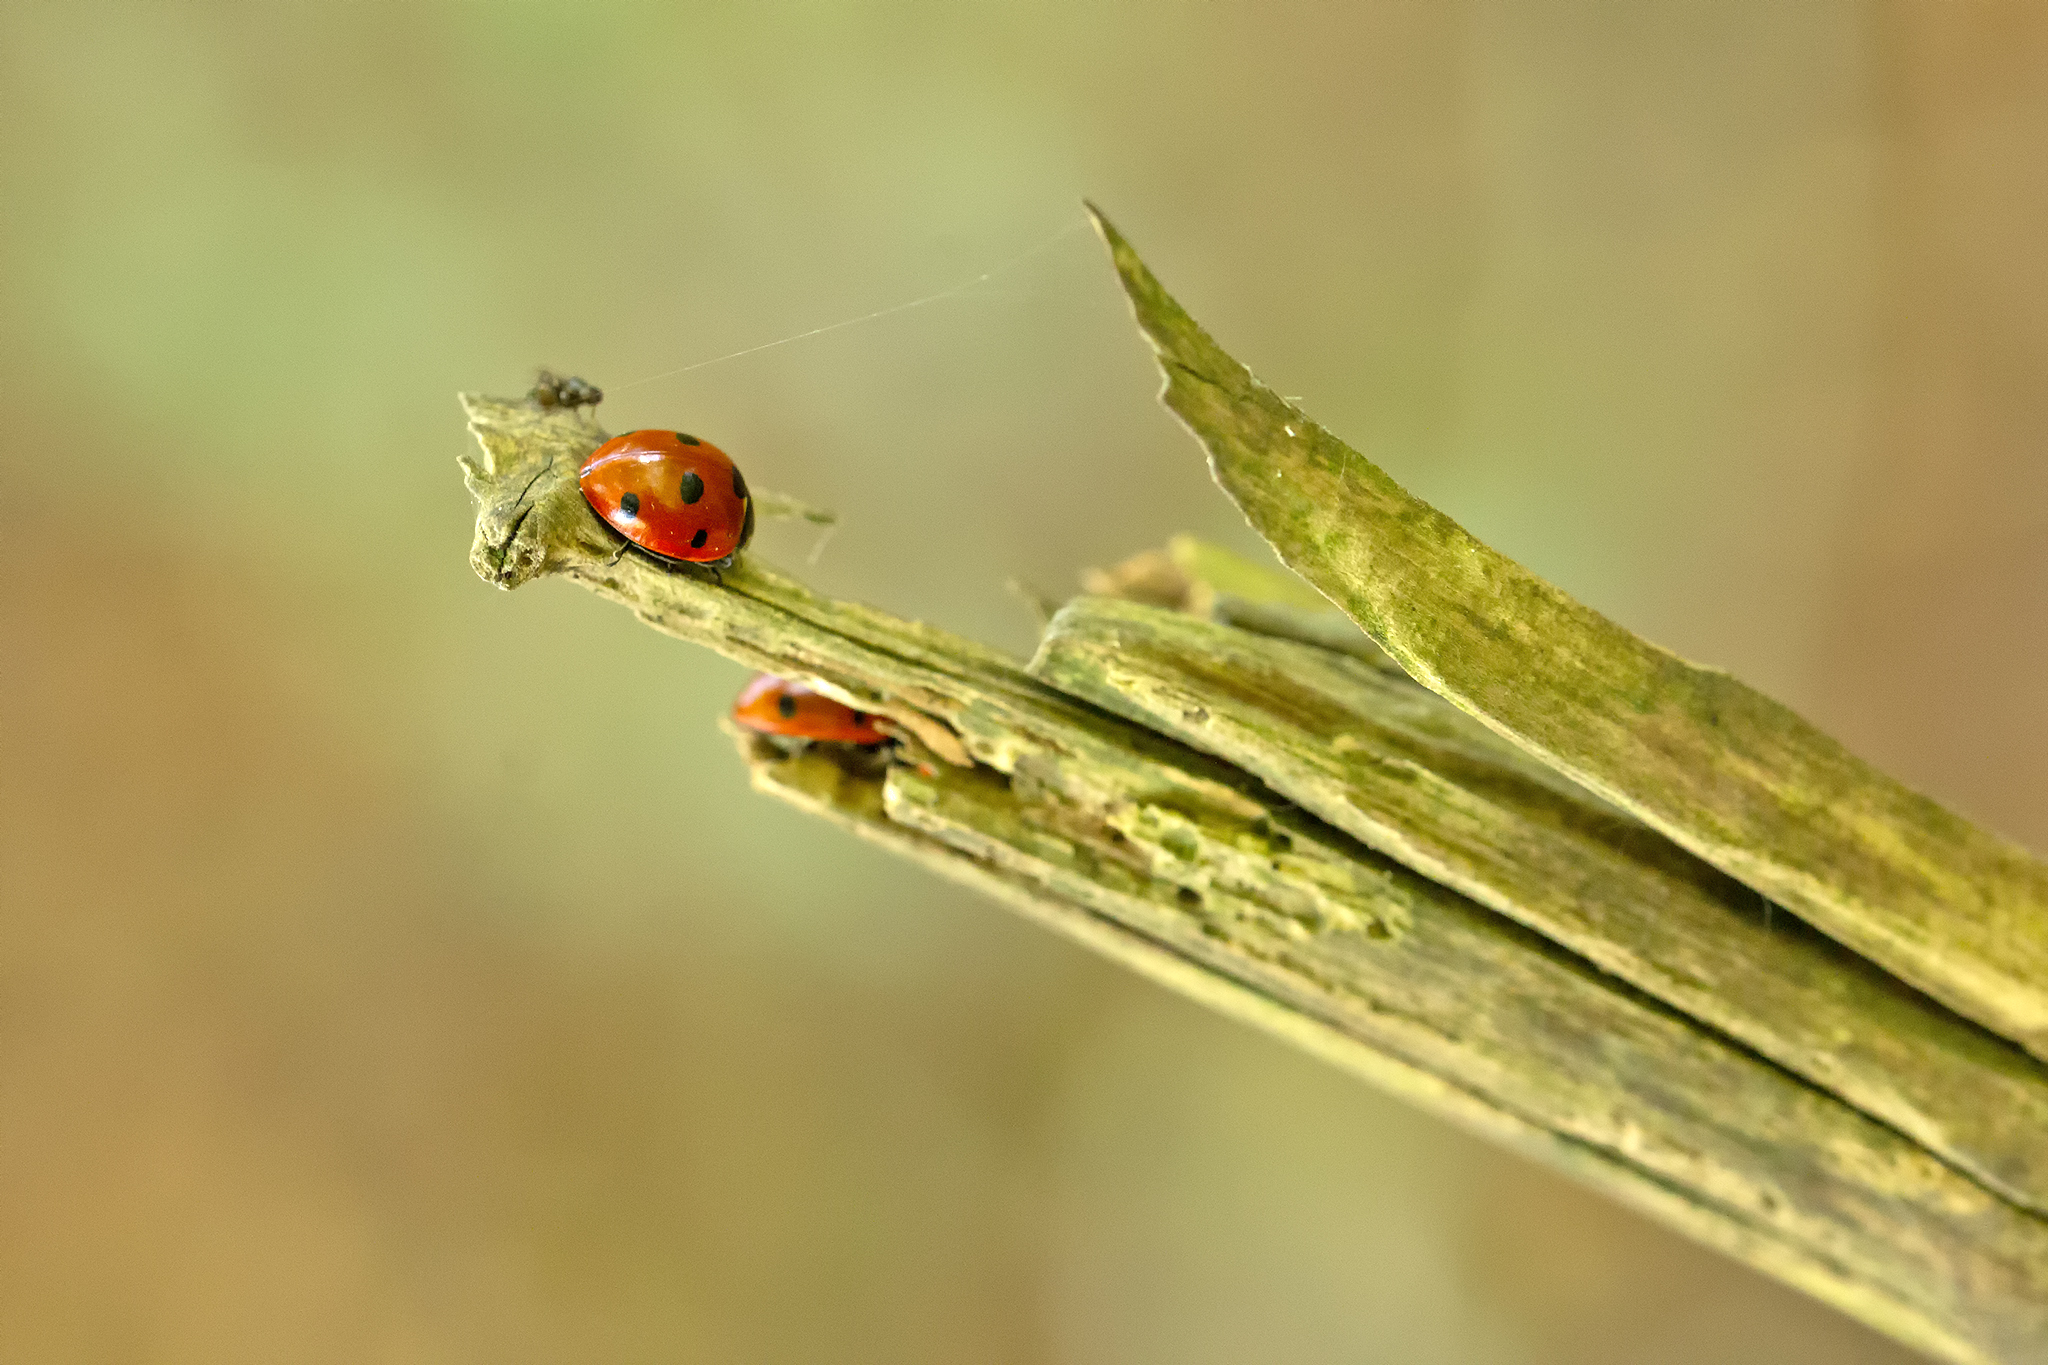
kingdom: Animalia
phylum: Arthropoda
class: Insecta
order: Coleoptera
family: Coccinellidae
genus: Coccinella
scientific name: Coccinella septempunctata
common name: Sevenspotted lady beetle
